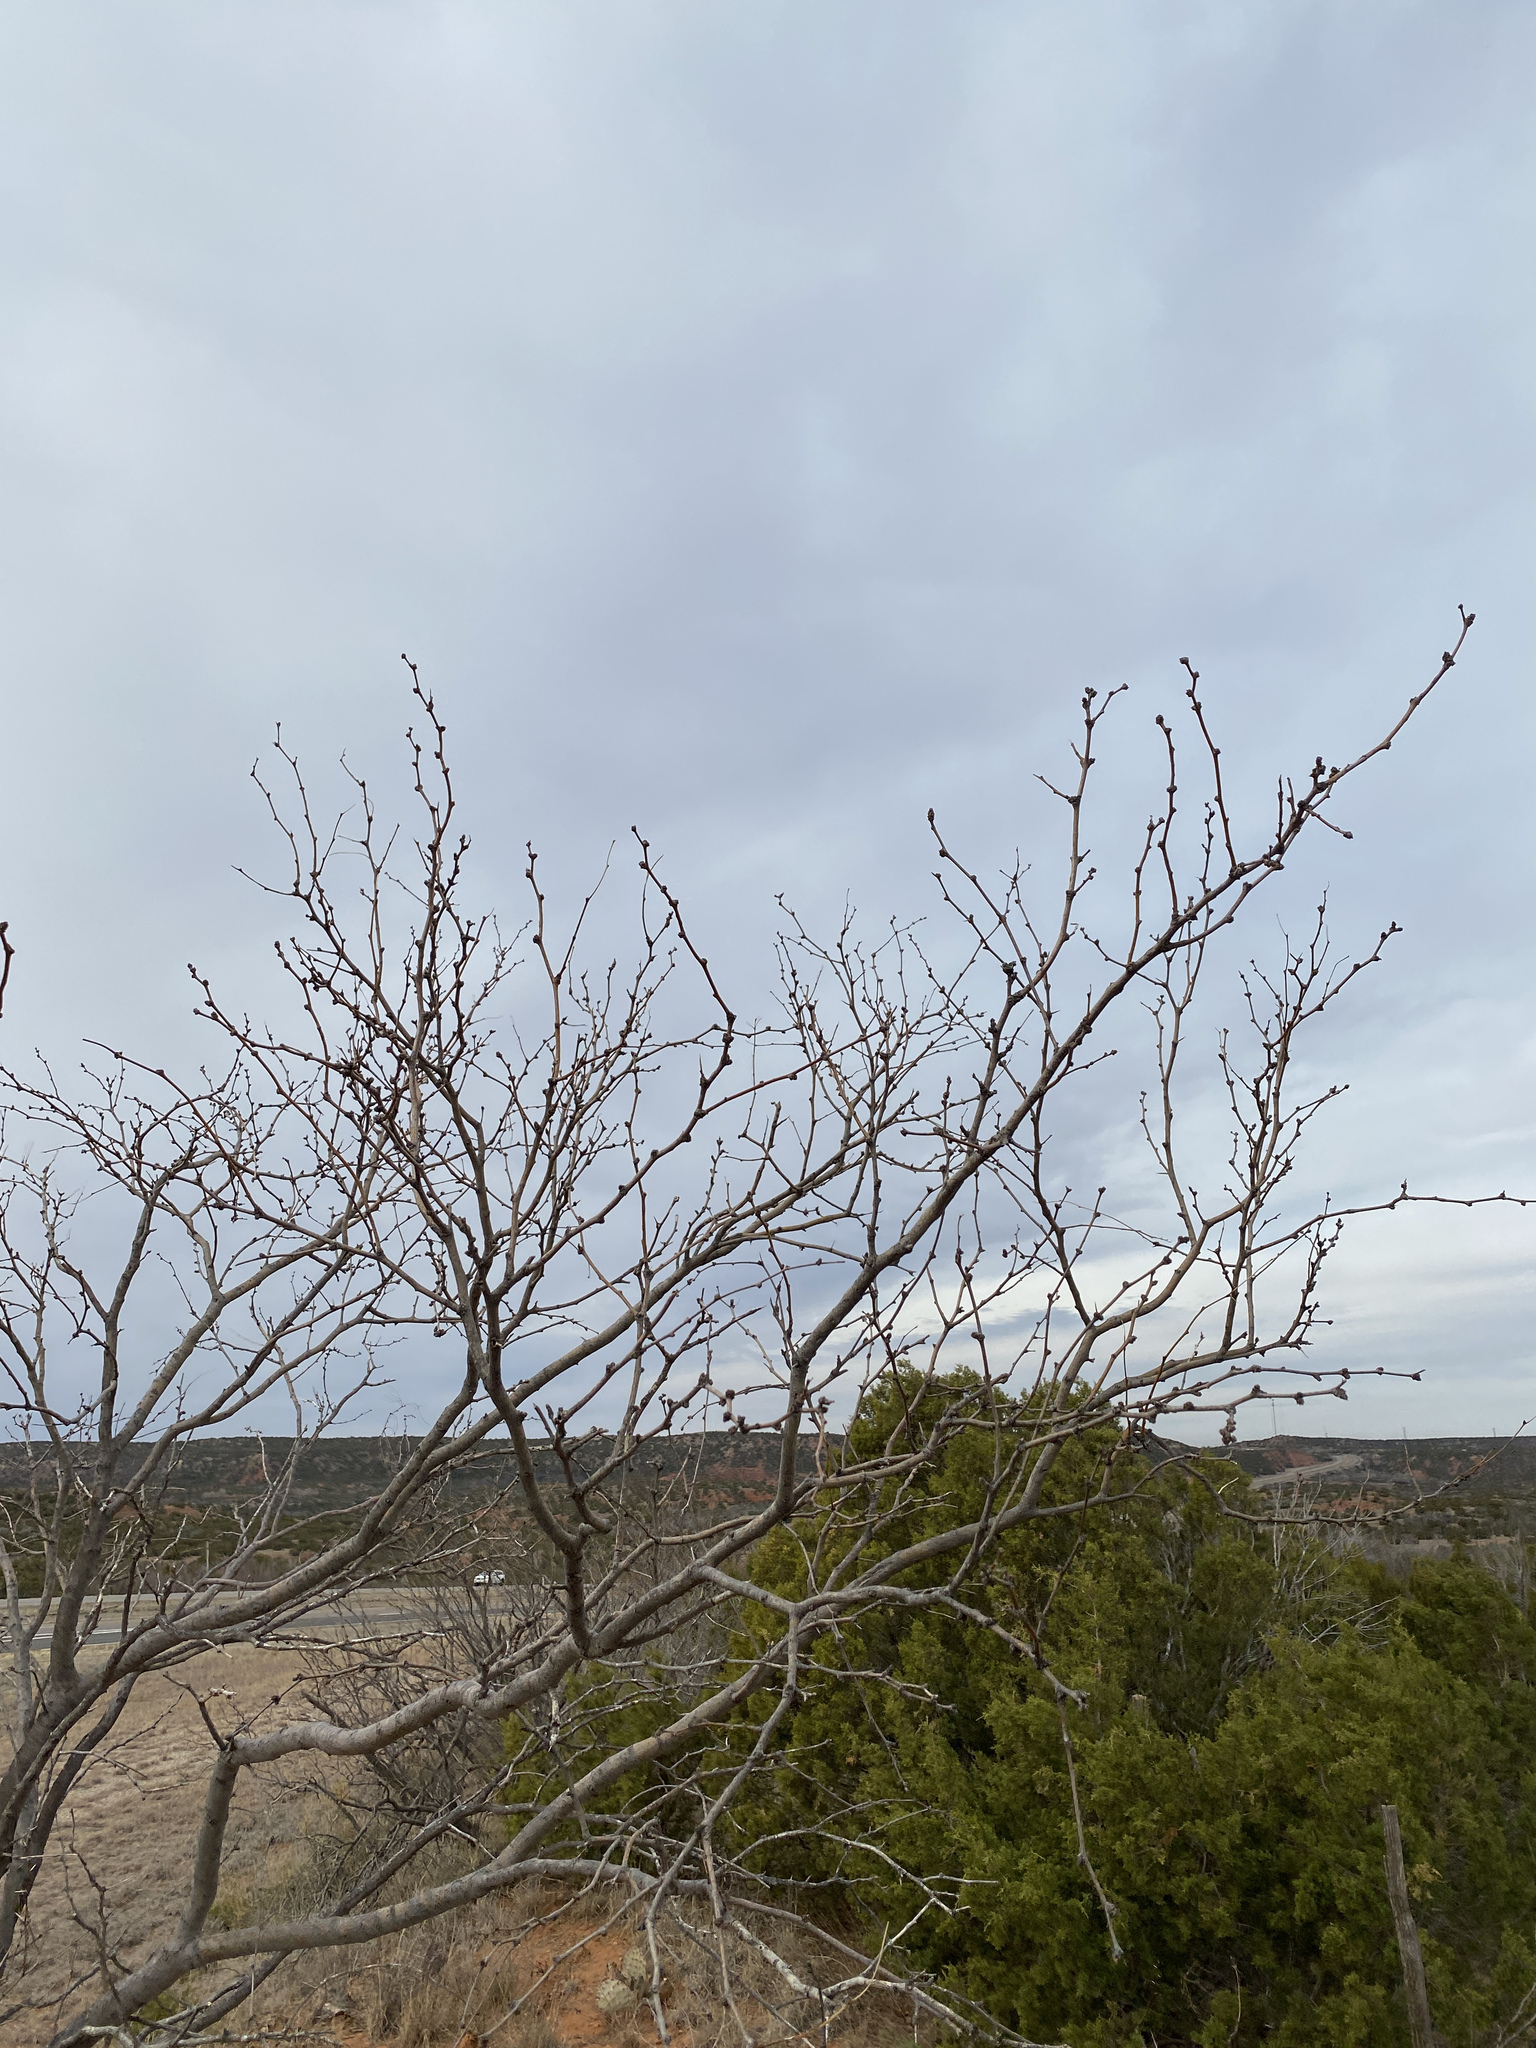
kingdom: Plantae
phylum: Tracheophyta
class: Magnoliopsida
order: Fabales
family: Fabaceae
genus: Prosopis
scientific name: Prosopis glandulosa
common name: Honey mesquite
